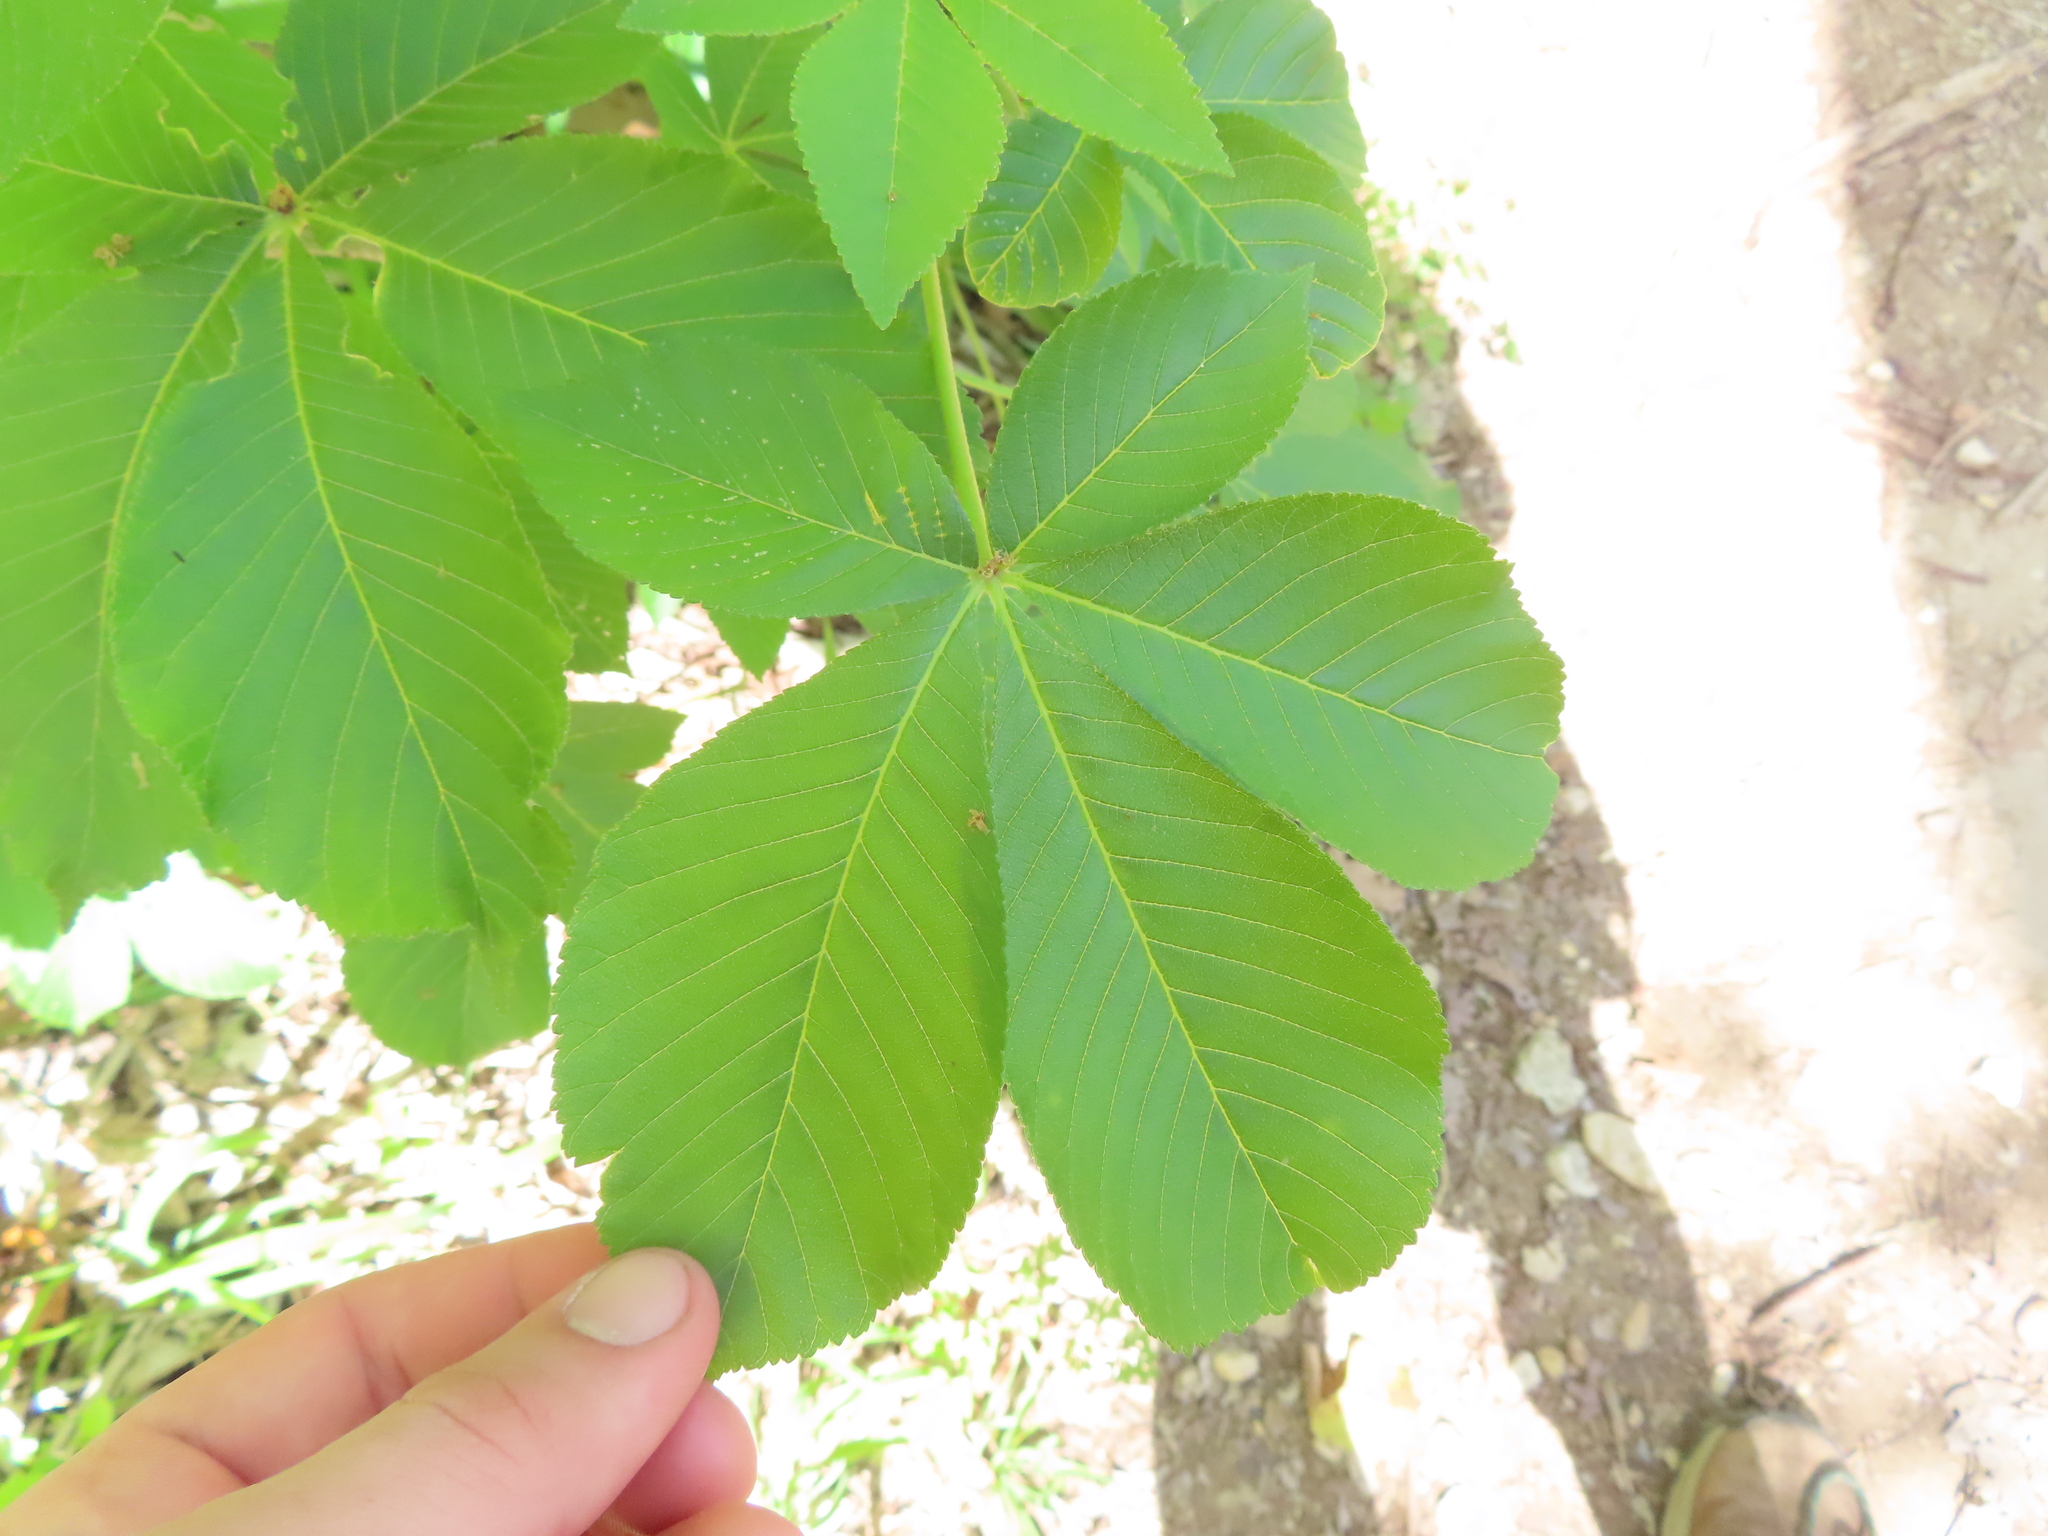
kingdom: Plantae
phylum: Tracheophyta
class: Magnoliopsida
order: Sapindales
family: Sapindaceae
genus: Aesculus
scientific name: Aesculus pavia
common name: Red buckeye
